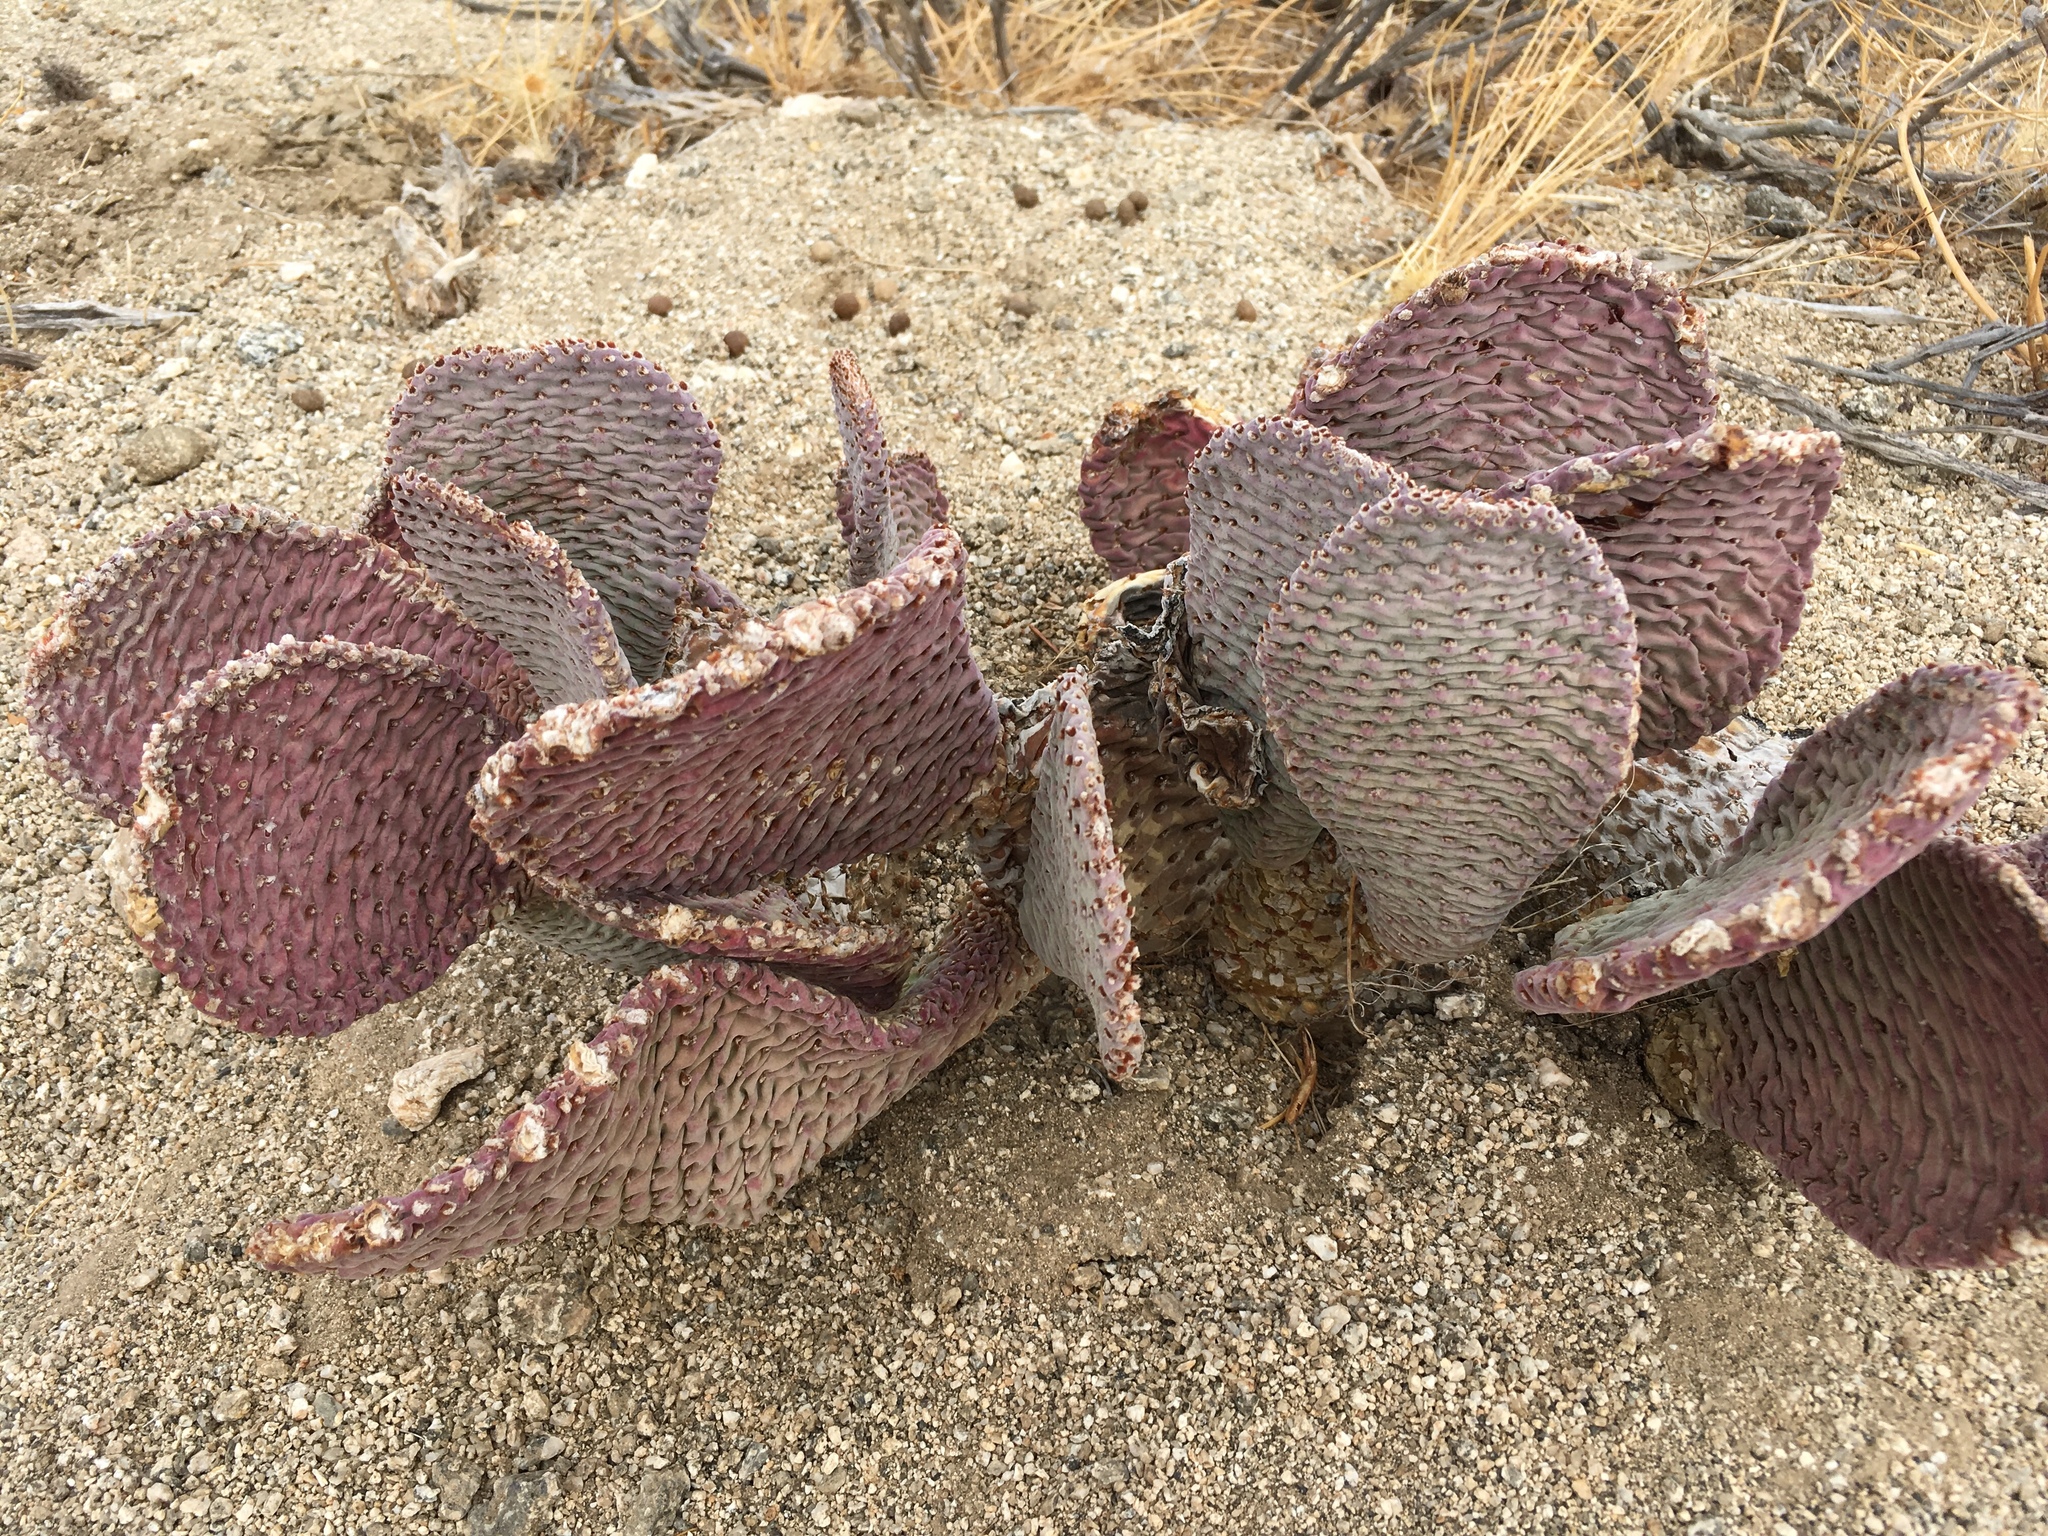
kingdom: Plantae
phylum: Tracheophyta
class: Magnoliopsida
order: Caryophyllales
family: Cactaceae
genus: Opuntia
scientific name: Opuntia basilaris
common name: Beavertail prickly-pear
